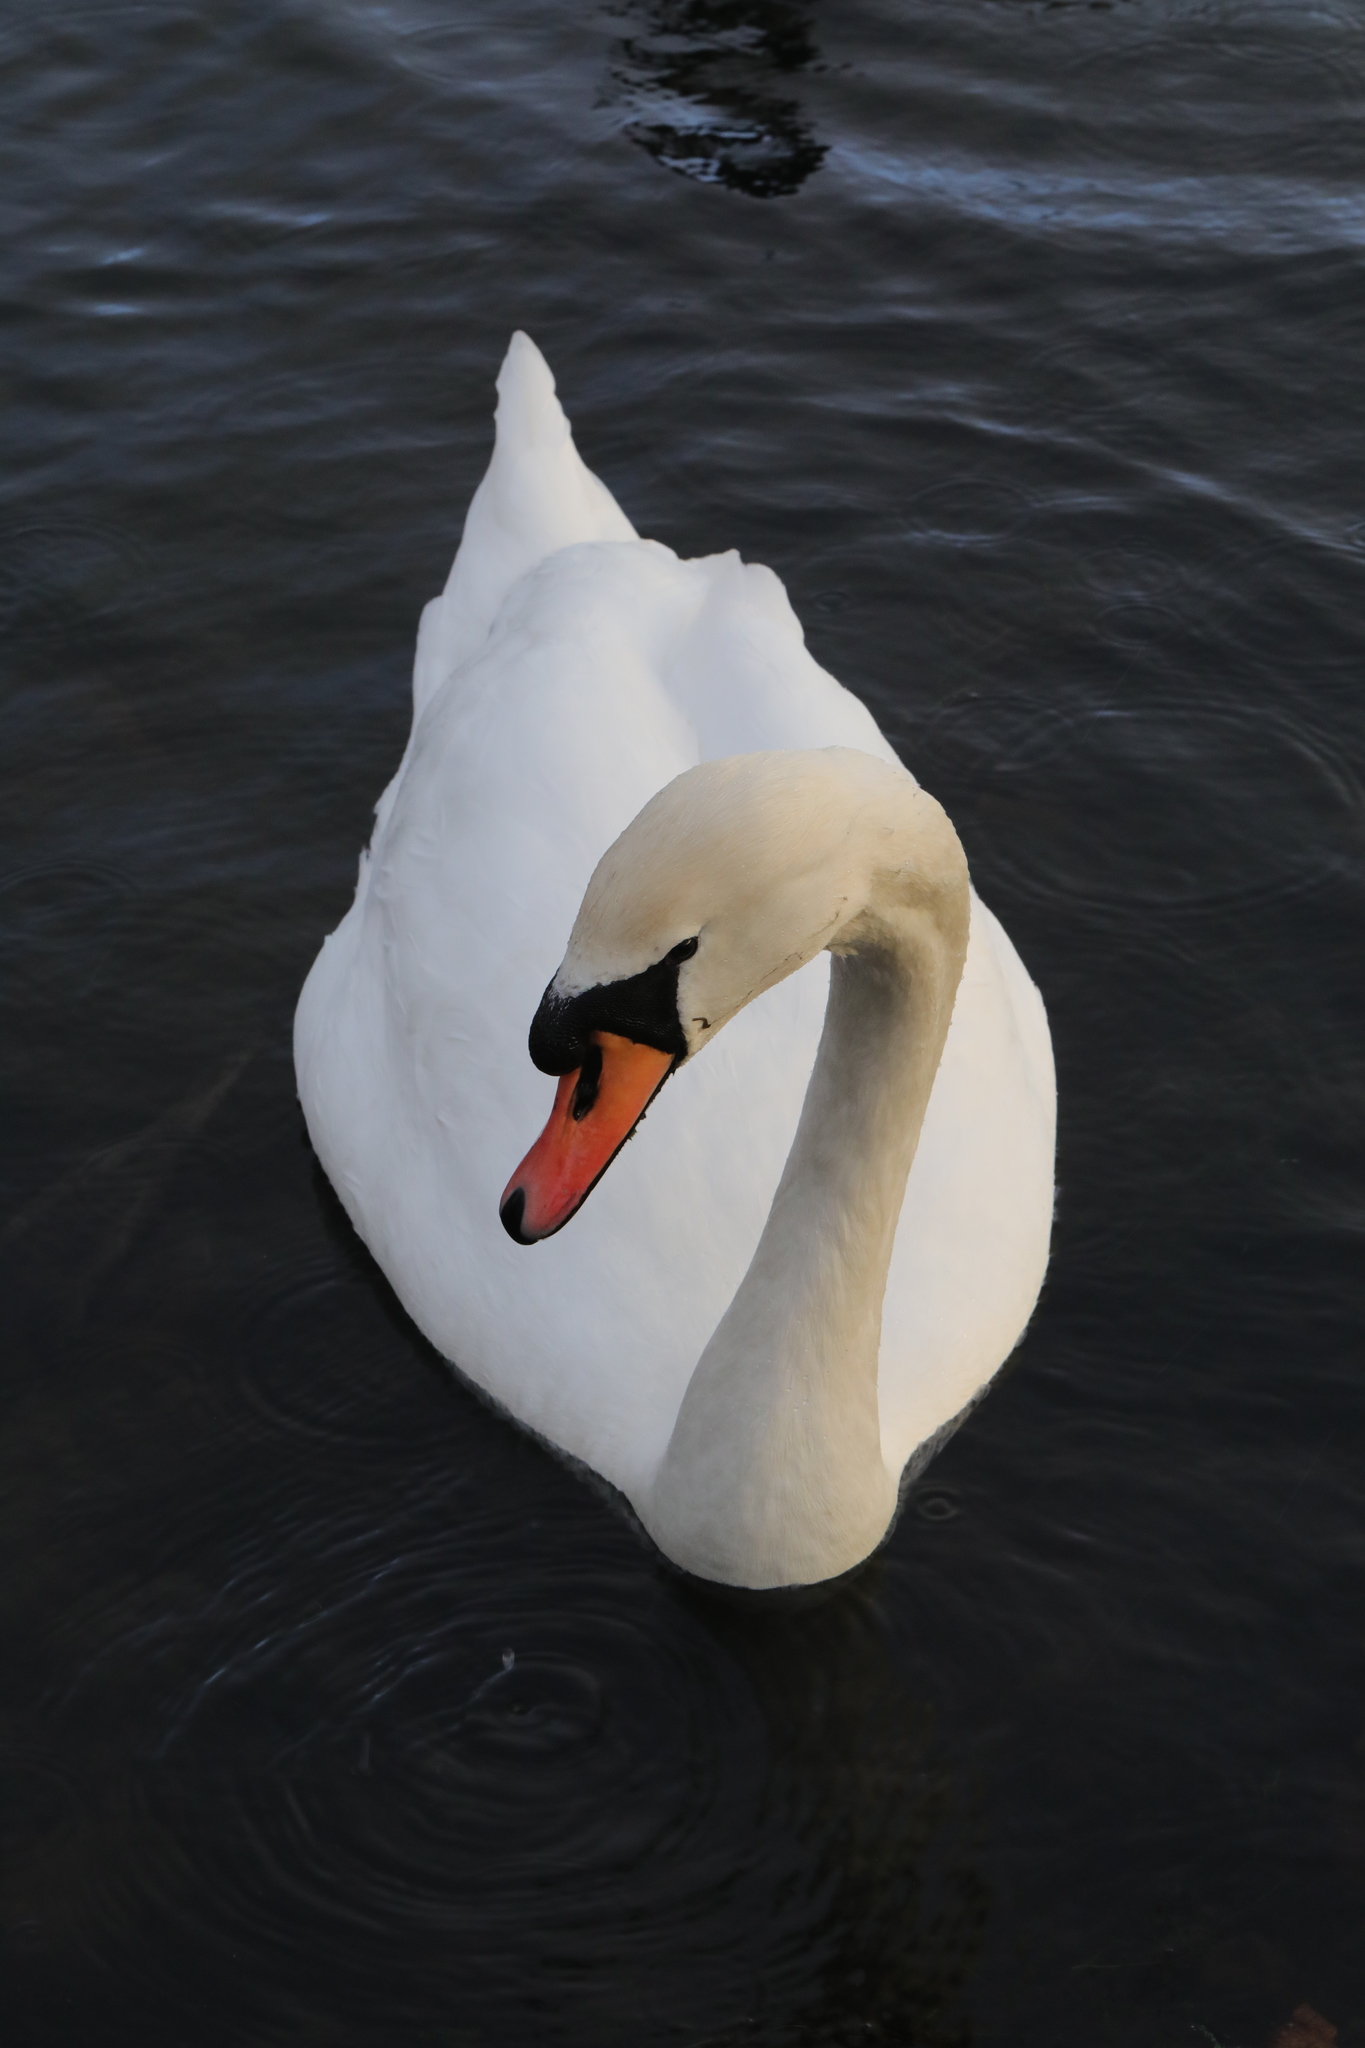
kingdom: Animalia
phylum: Chordata
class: Aves
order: Anseriformes
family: Anatidae
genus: Cygnus
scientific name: Cygnus olor
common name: Mute swan
